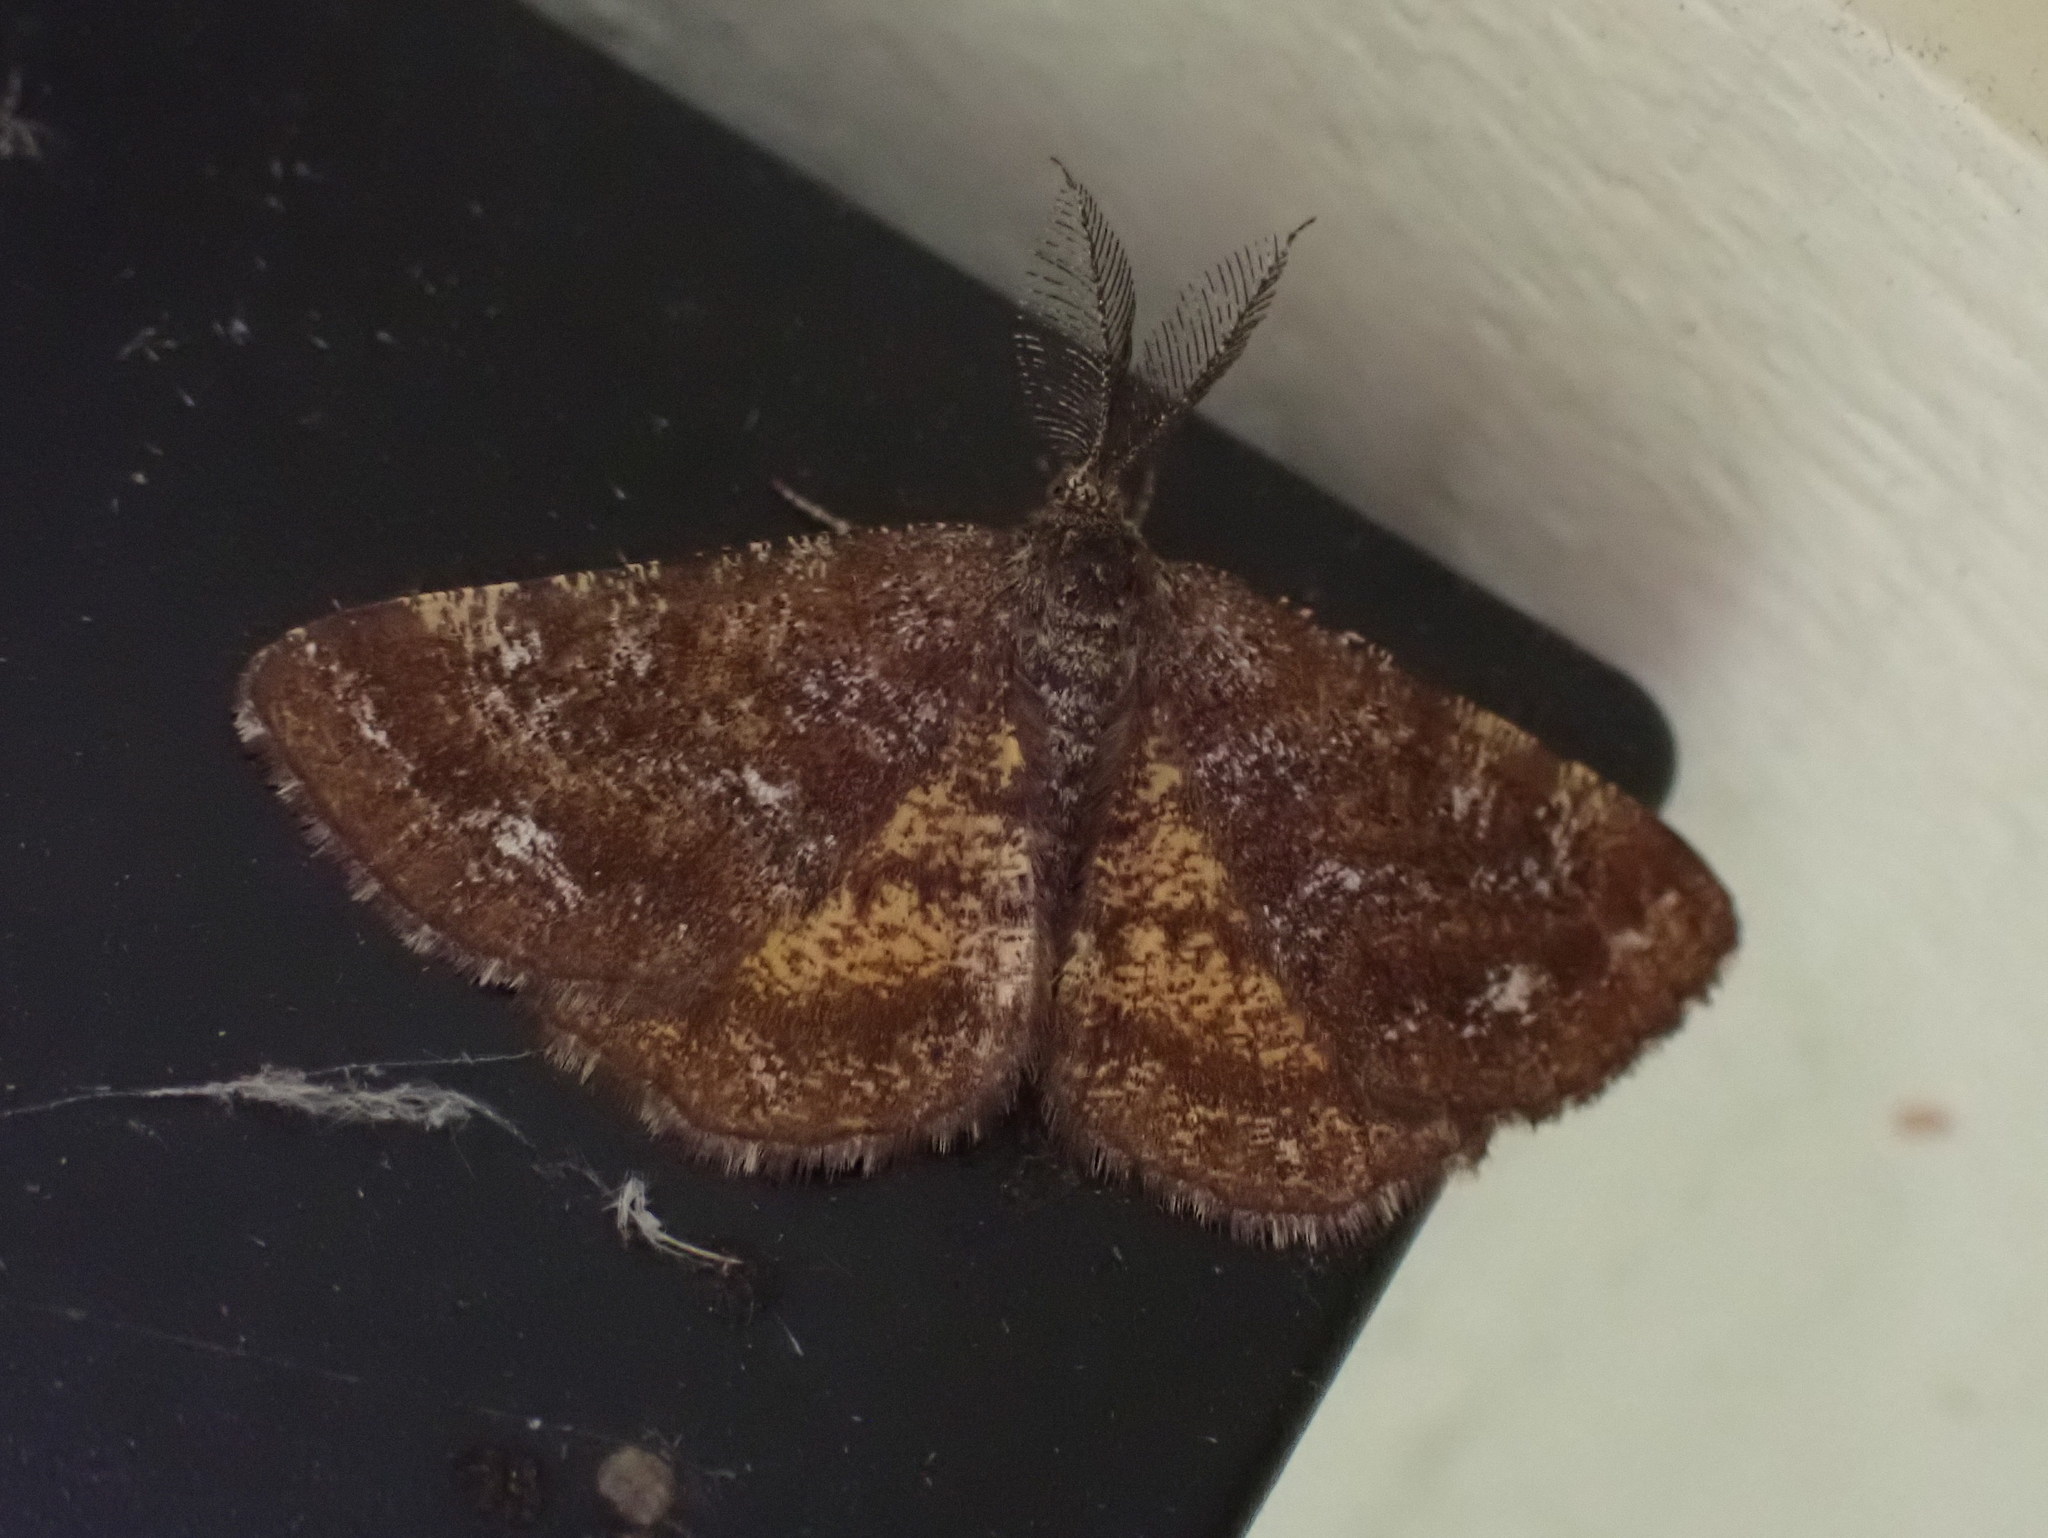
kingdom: Animalia
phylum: Arthropoda
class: Insecta
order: Lepidoptera
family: Geometridae
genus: Ematurga
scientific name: Ematurga amitaria
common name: Cranberry spanworm moth
